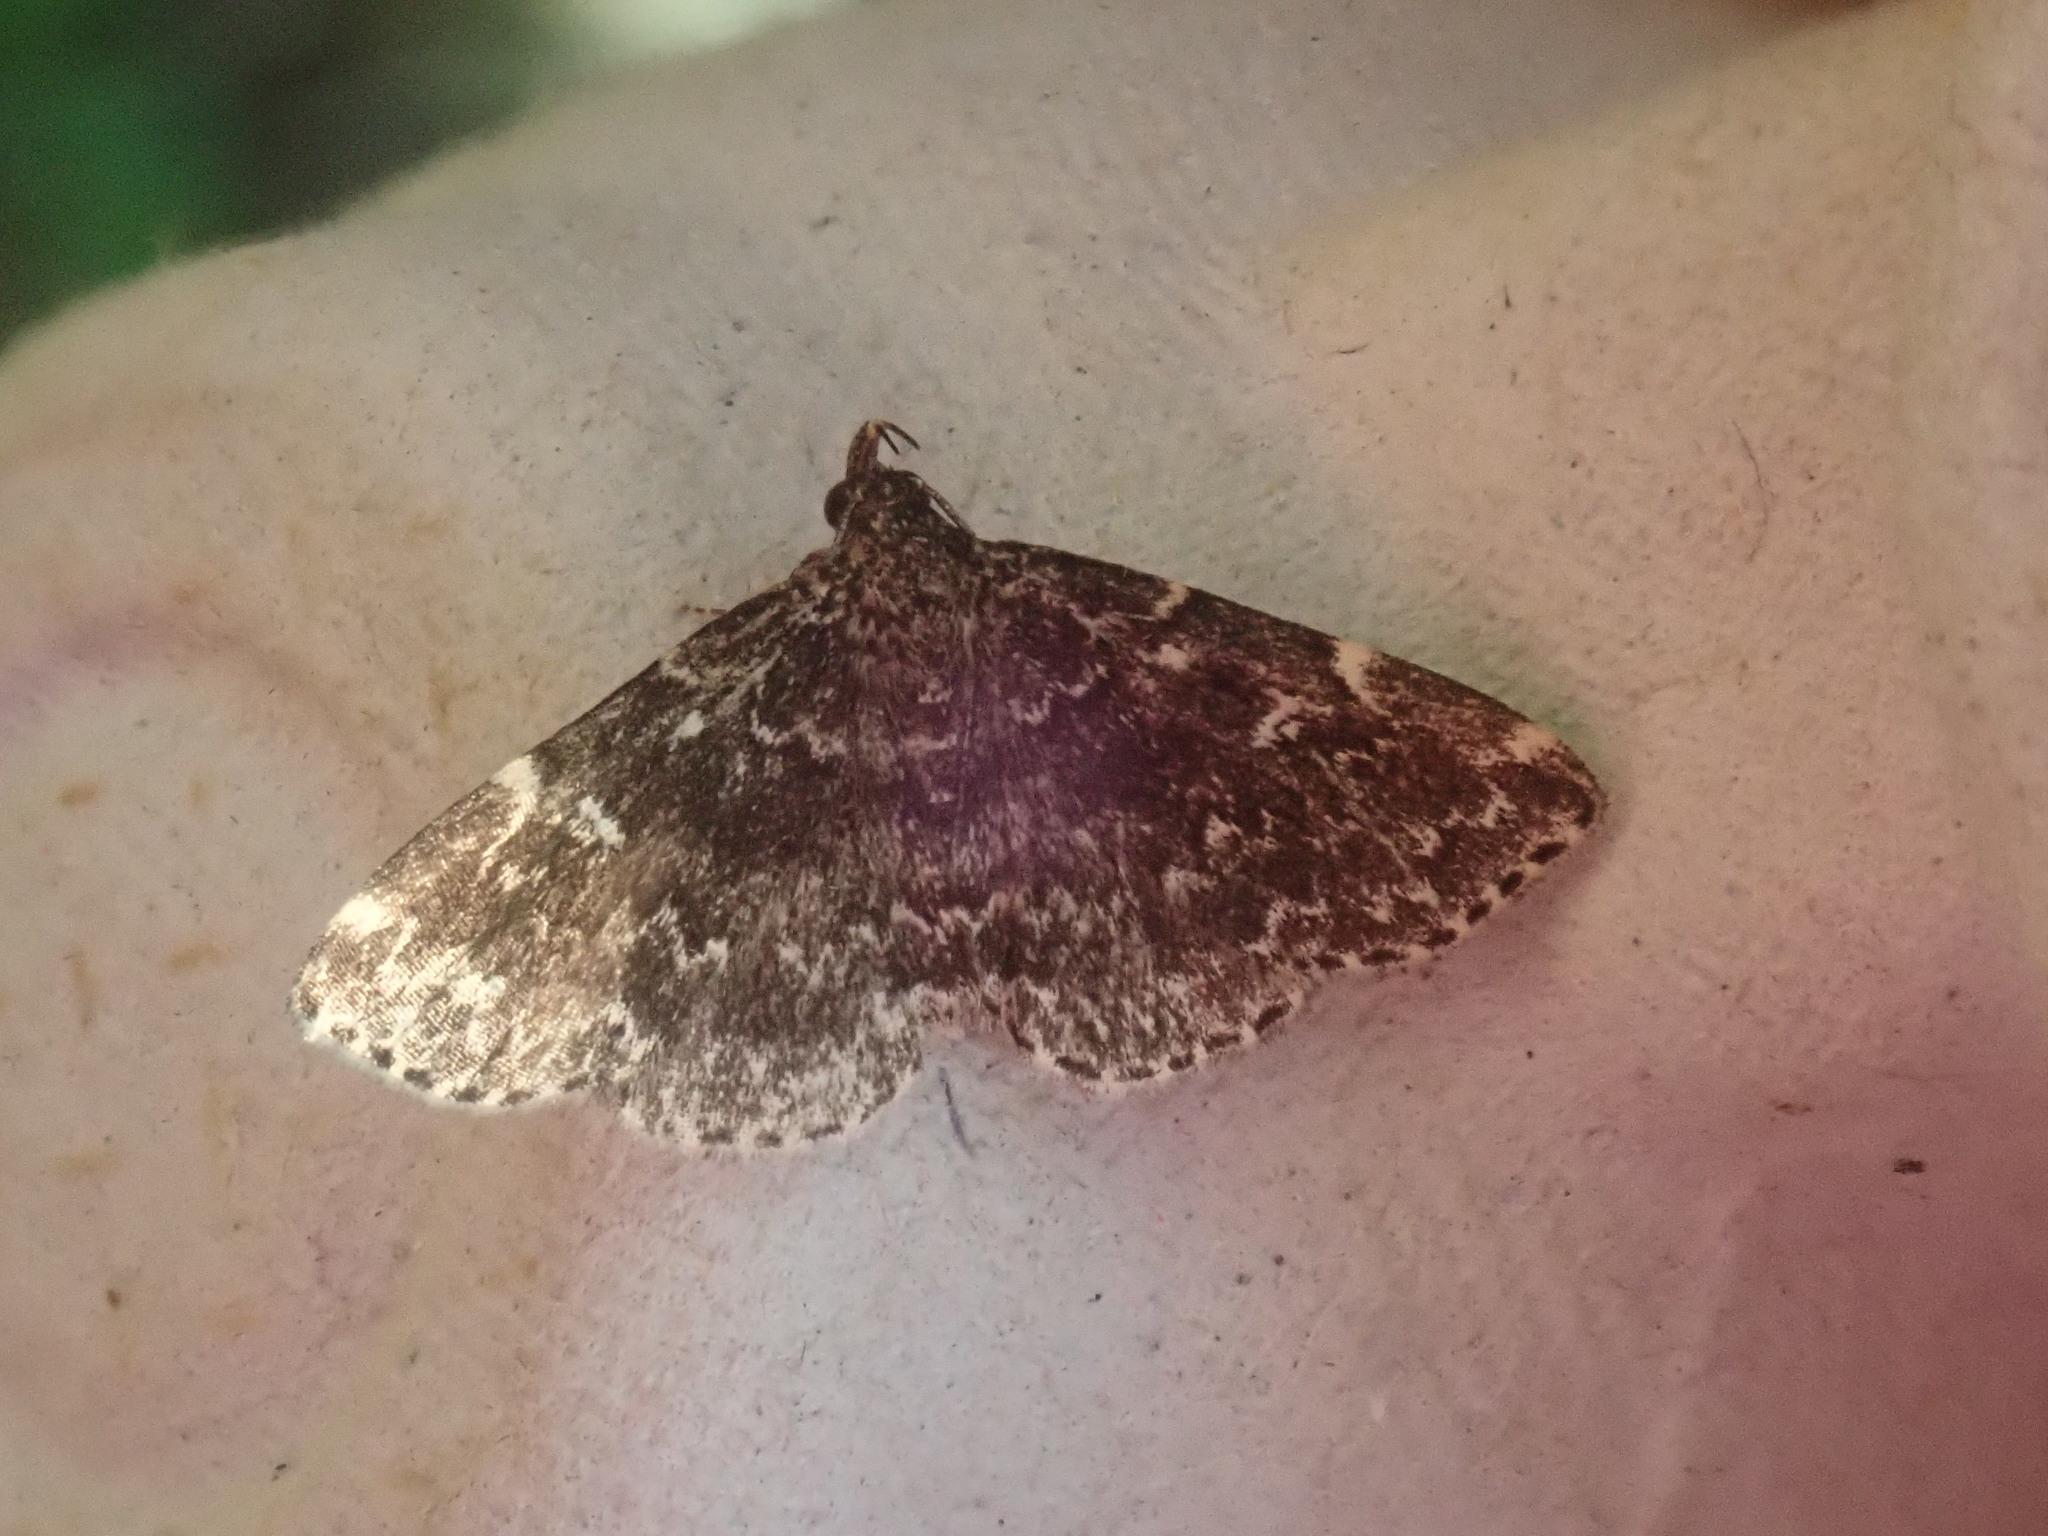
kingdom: Animalia
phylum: Arthropoda
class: Insecta
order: Lepidoptera
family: Erebidae
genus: Idia
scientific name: Idia scobialis
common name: Smoky idia moth
